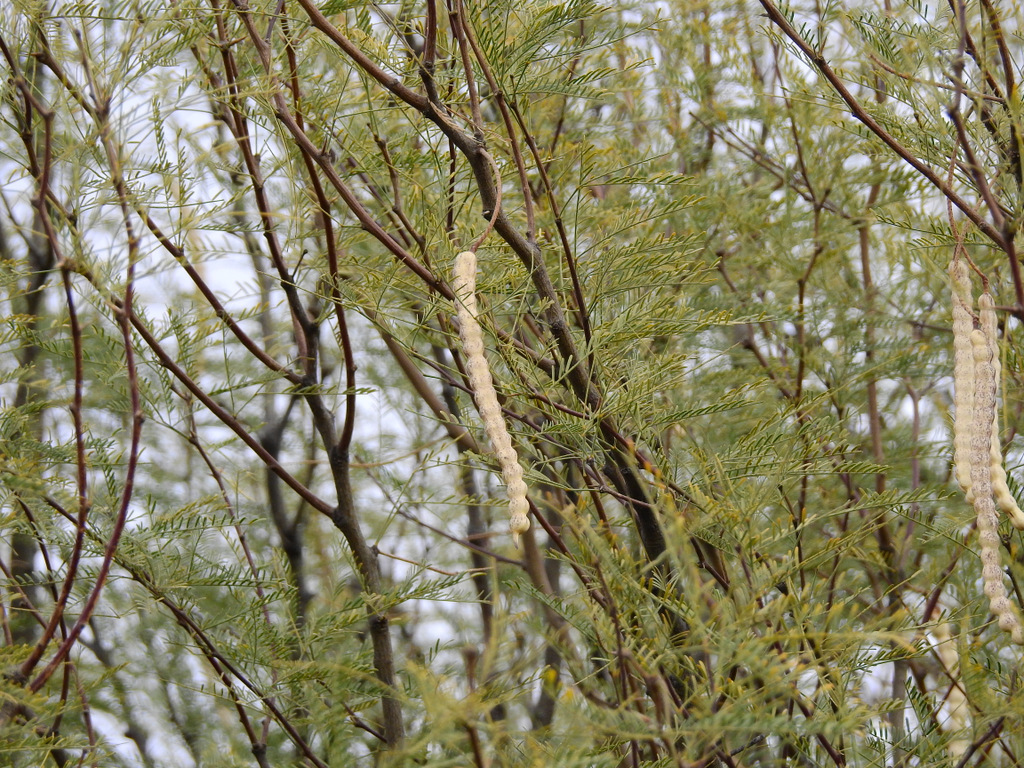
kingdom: Plantae
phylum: Tracheophyta
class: Magnoliopsida
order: Fabales
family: Fabaceae
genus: Prosopis
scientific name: Prosopis flexuosa
